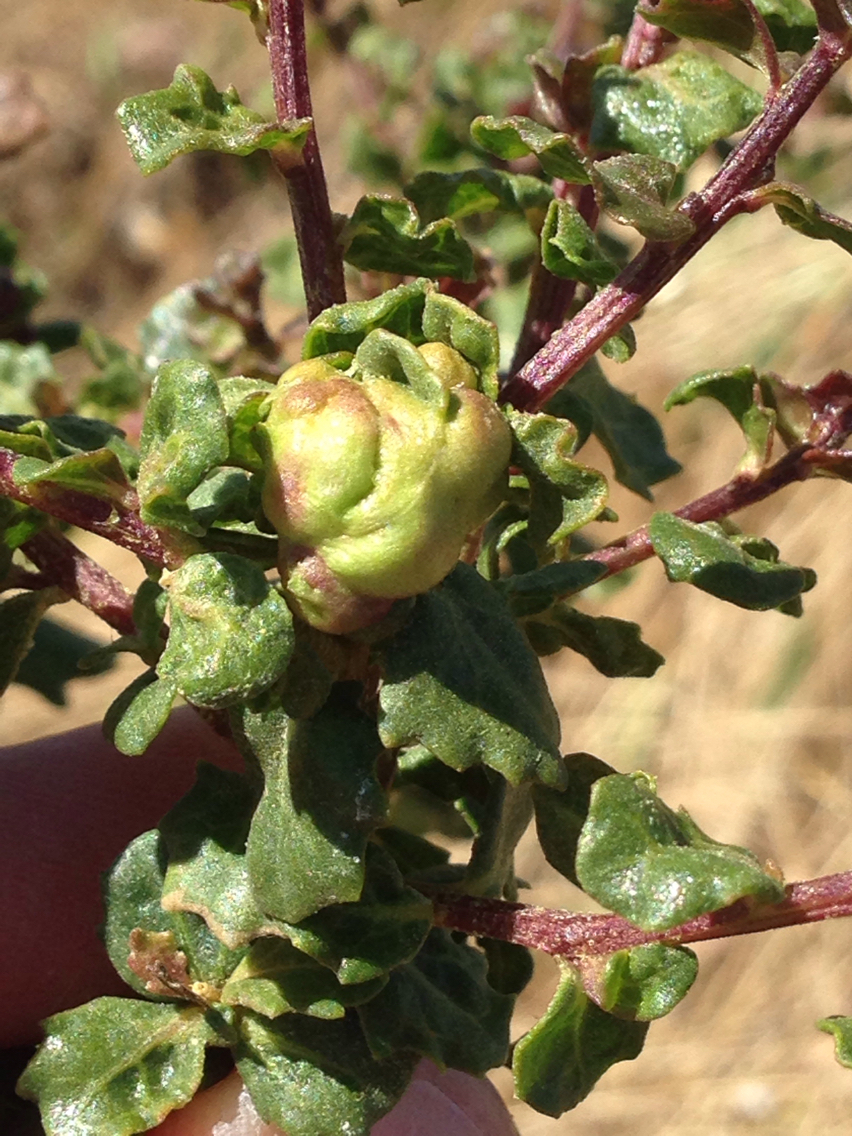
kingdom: Plantae
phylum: Tracheophyta
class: Magnoliopsida
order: Asterales
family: Asteraceae
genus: Baccharis
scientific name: Baccharis pilularis
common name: Coyotebrush
